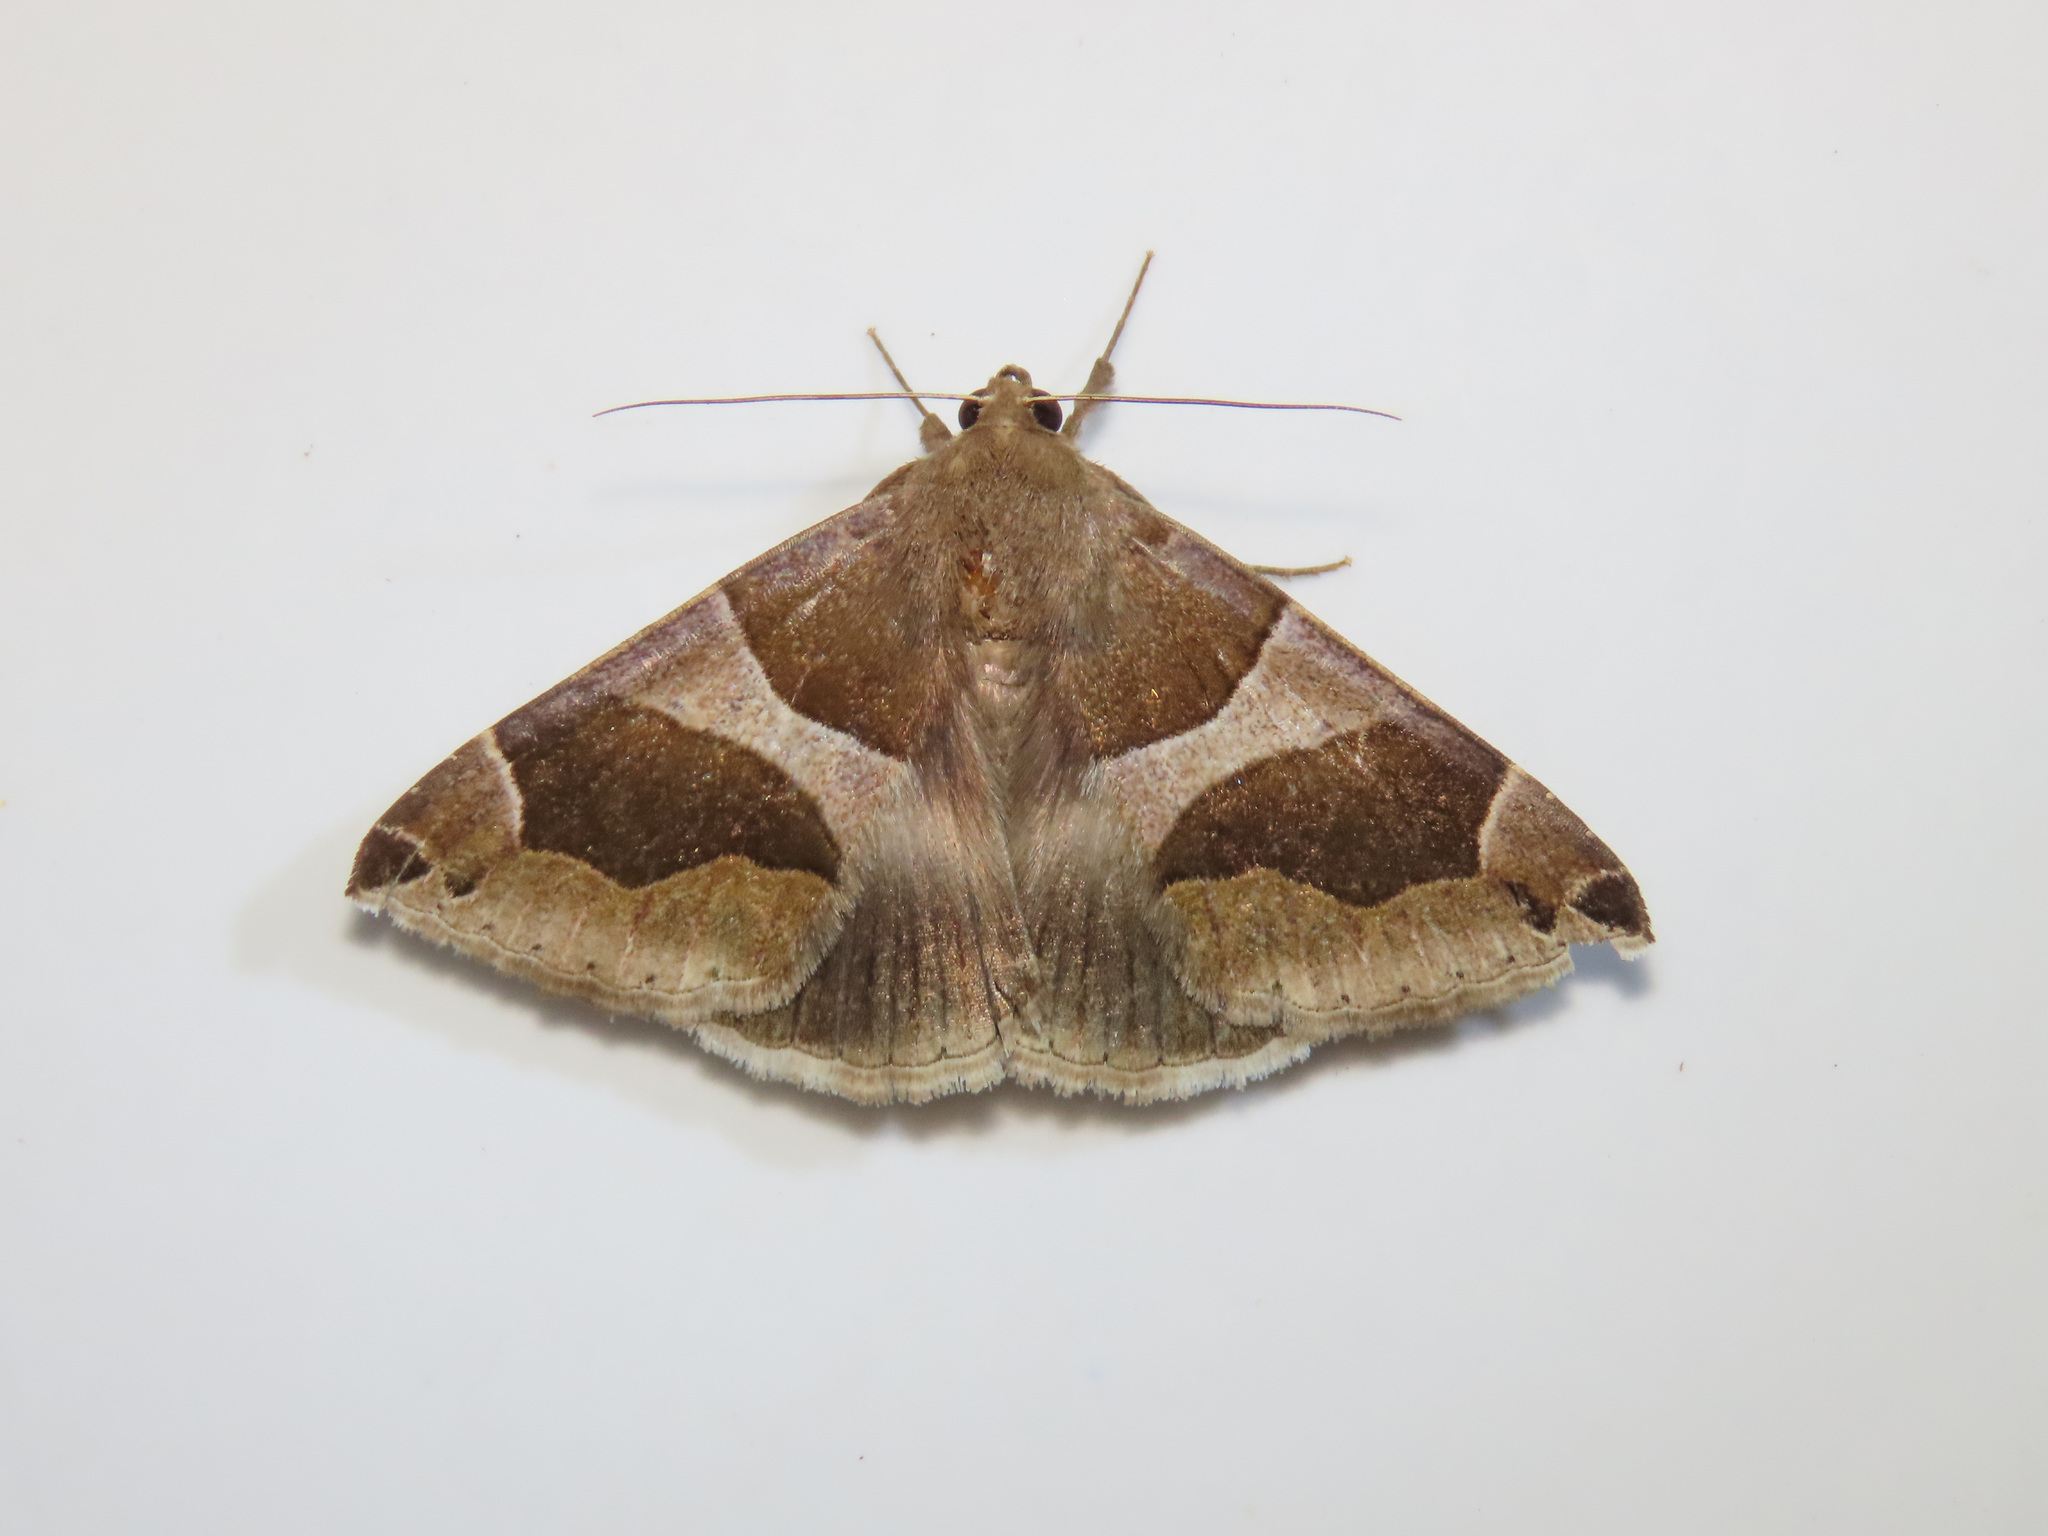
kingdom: Animalia
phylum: Arthropoda
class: Insecta
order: Lepidoptera
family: Erebidae
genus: Dysgonia
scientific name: Dysgonia algira
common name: Passenger
